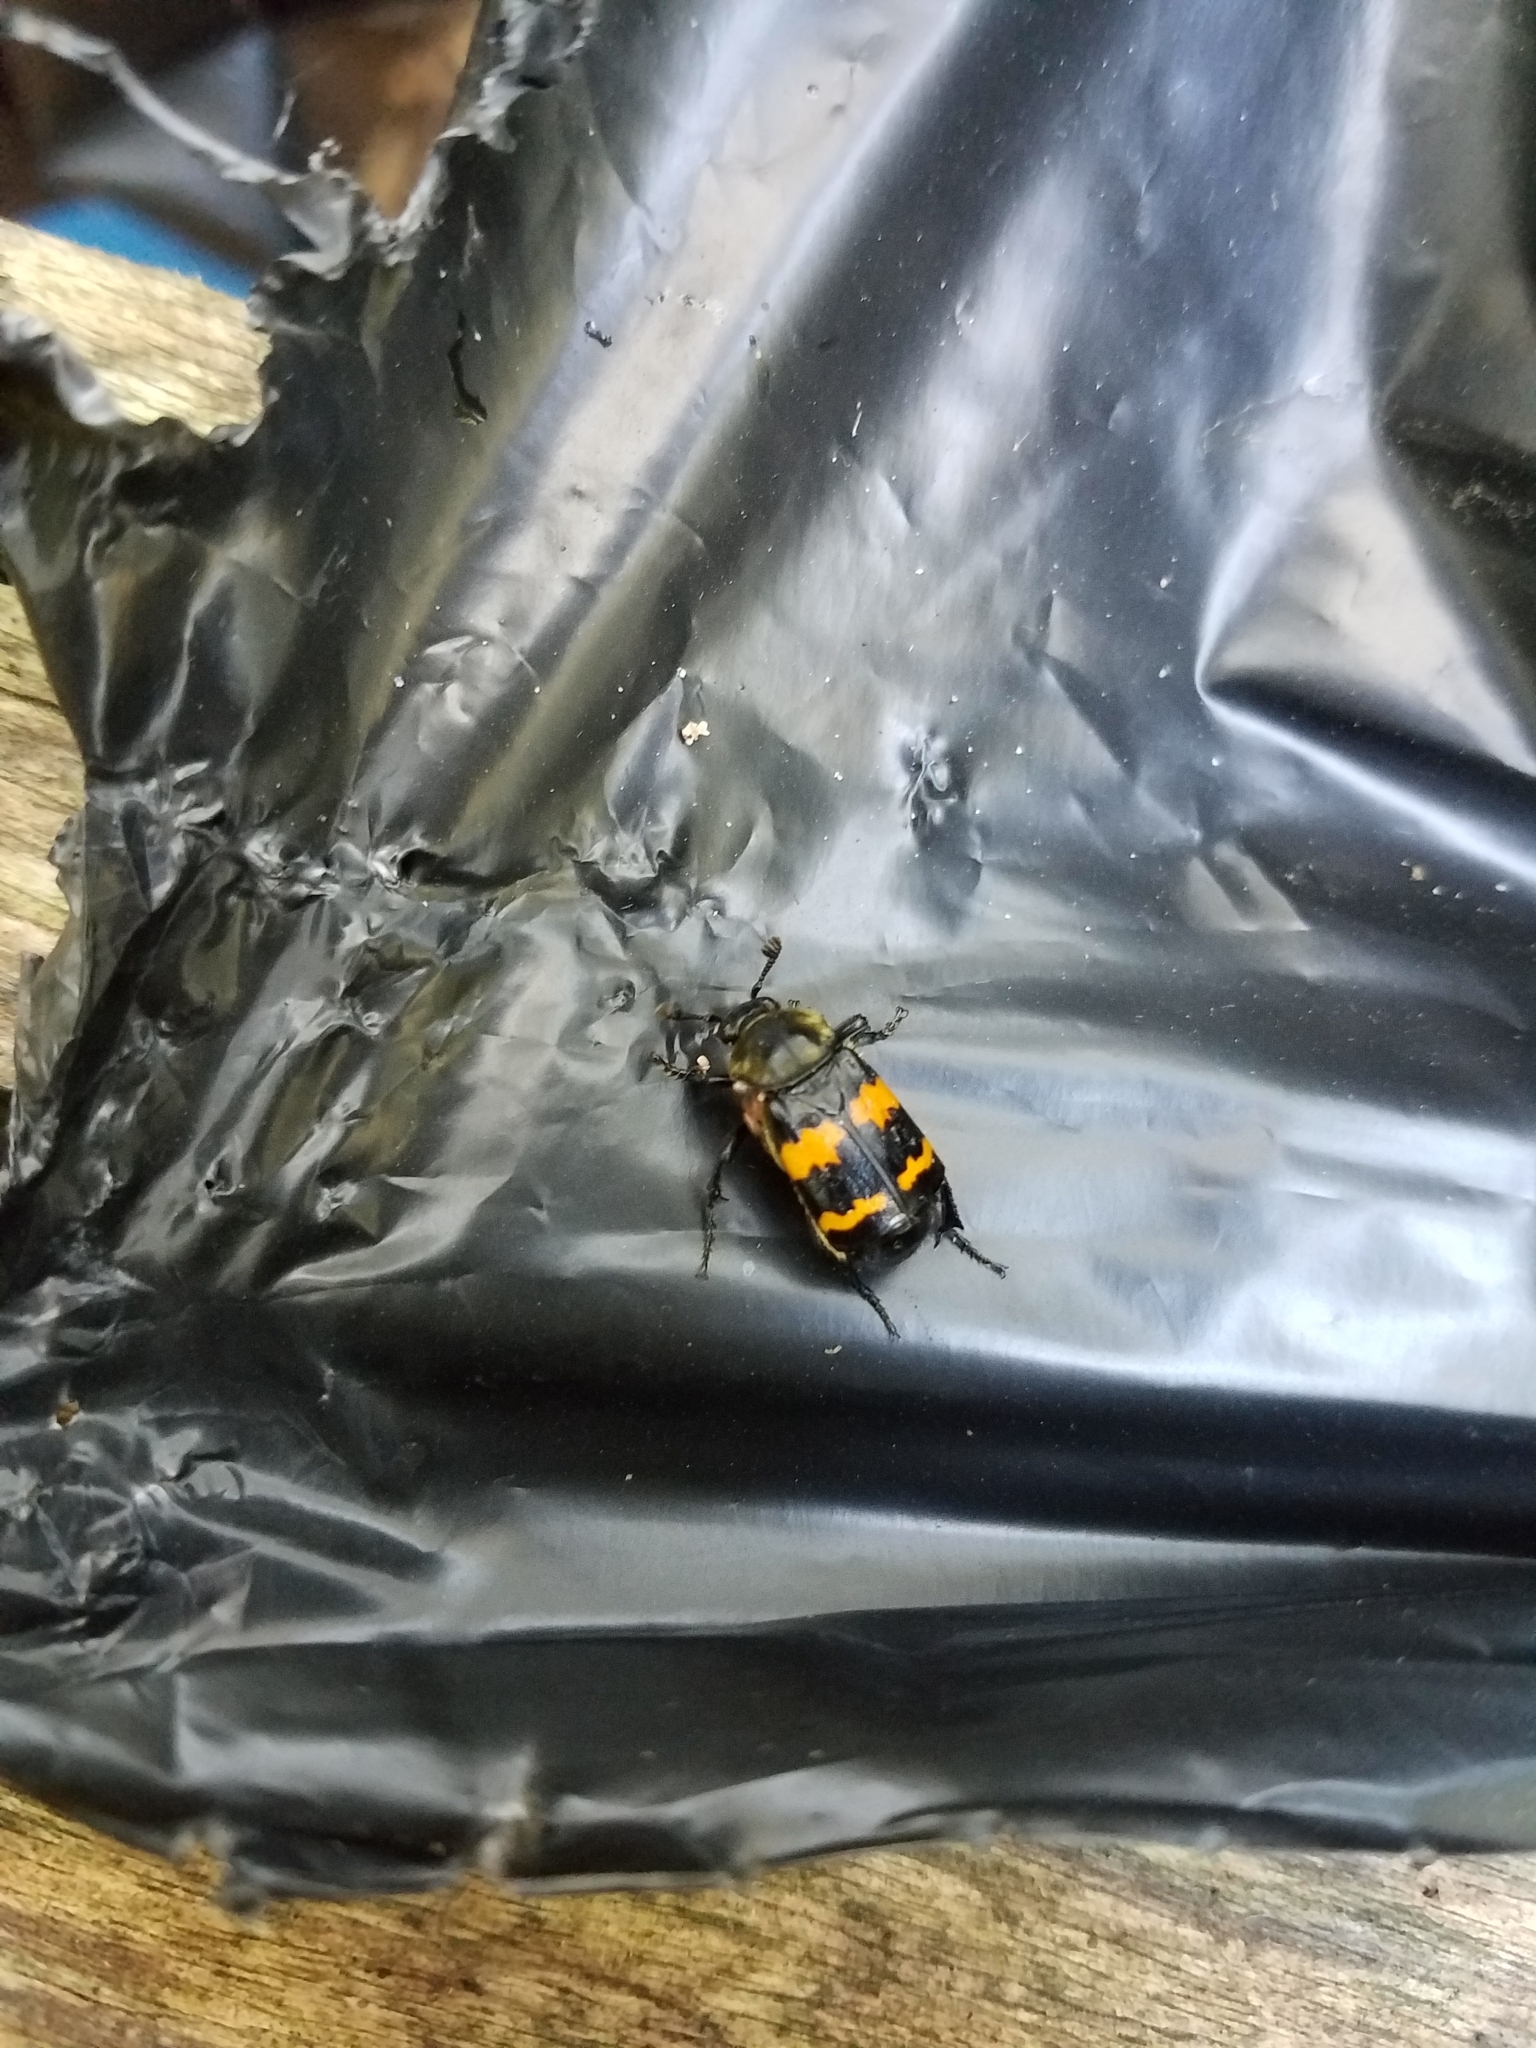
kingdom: Animalia
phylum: Arthropoda
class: Insecta
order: Coleoptera
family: Staphylinidae
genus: Nicrophorus
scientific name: Nicrophorus tomentosus
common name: Tomentose burying beetle
